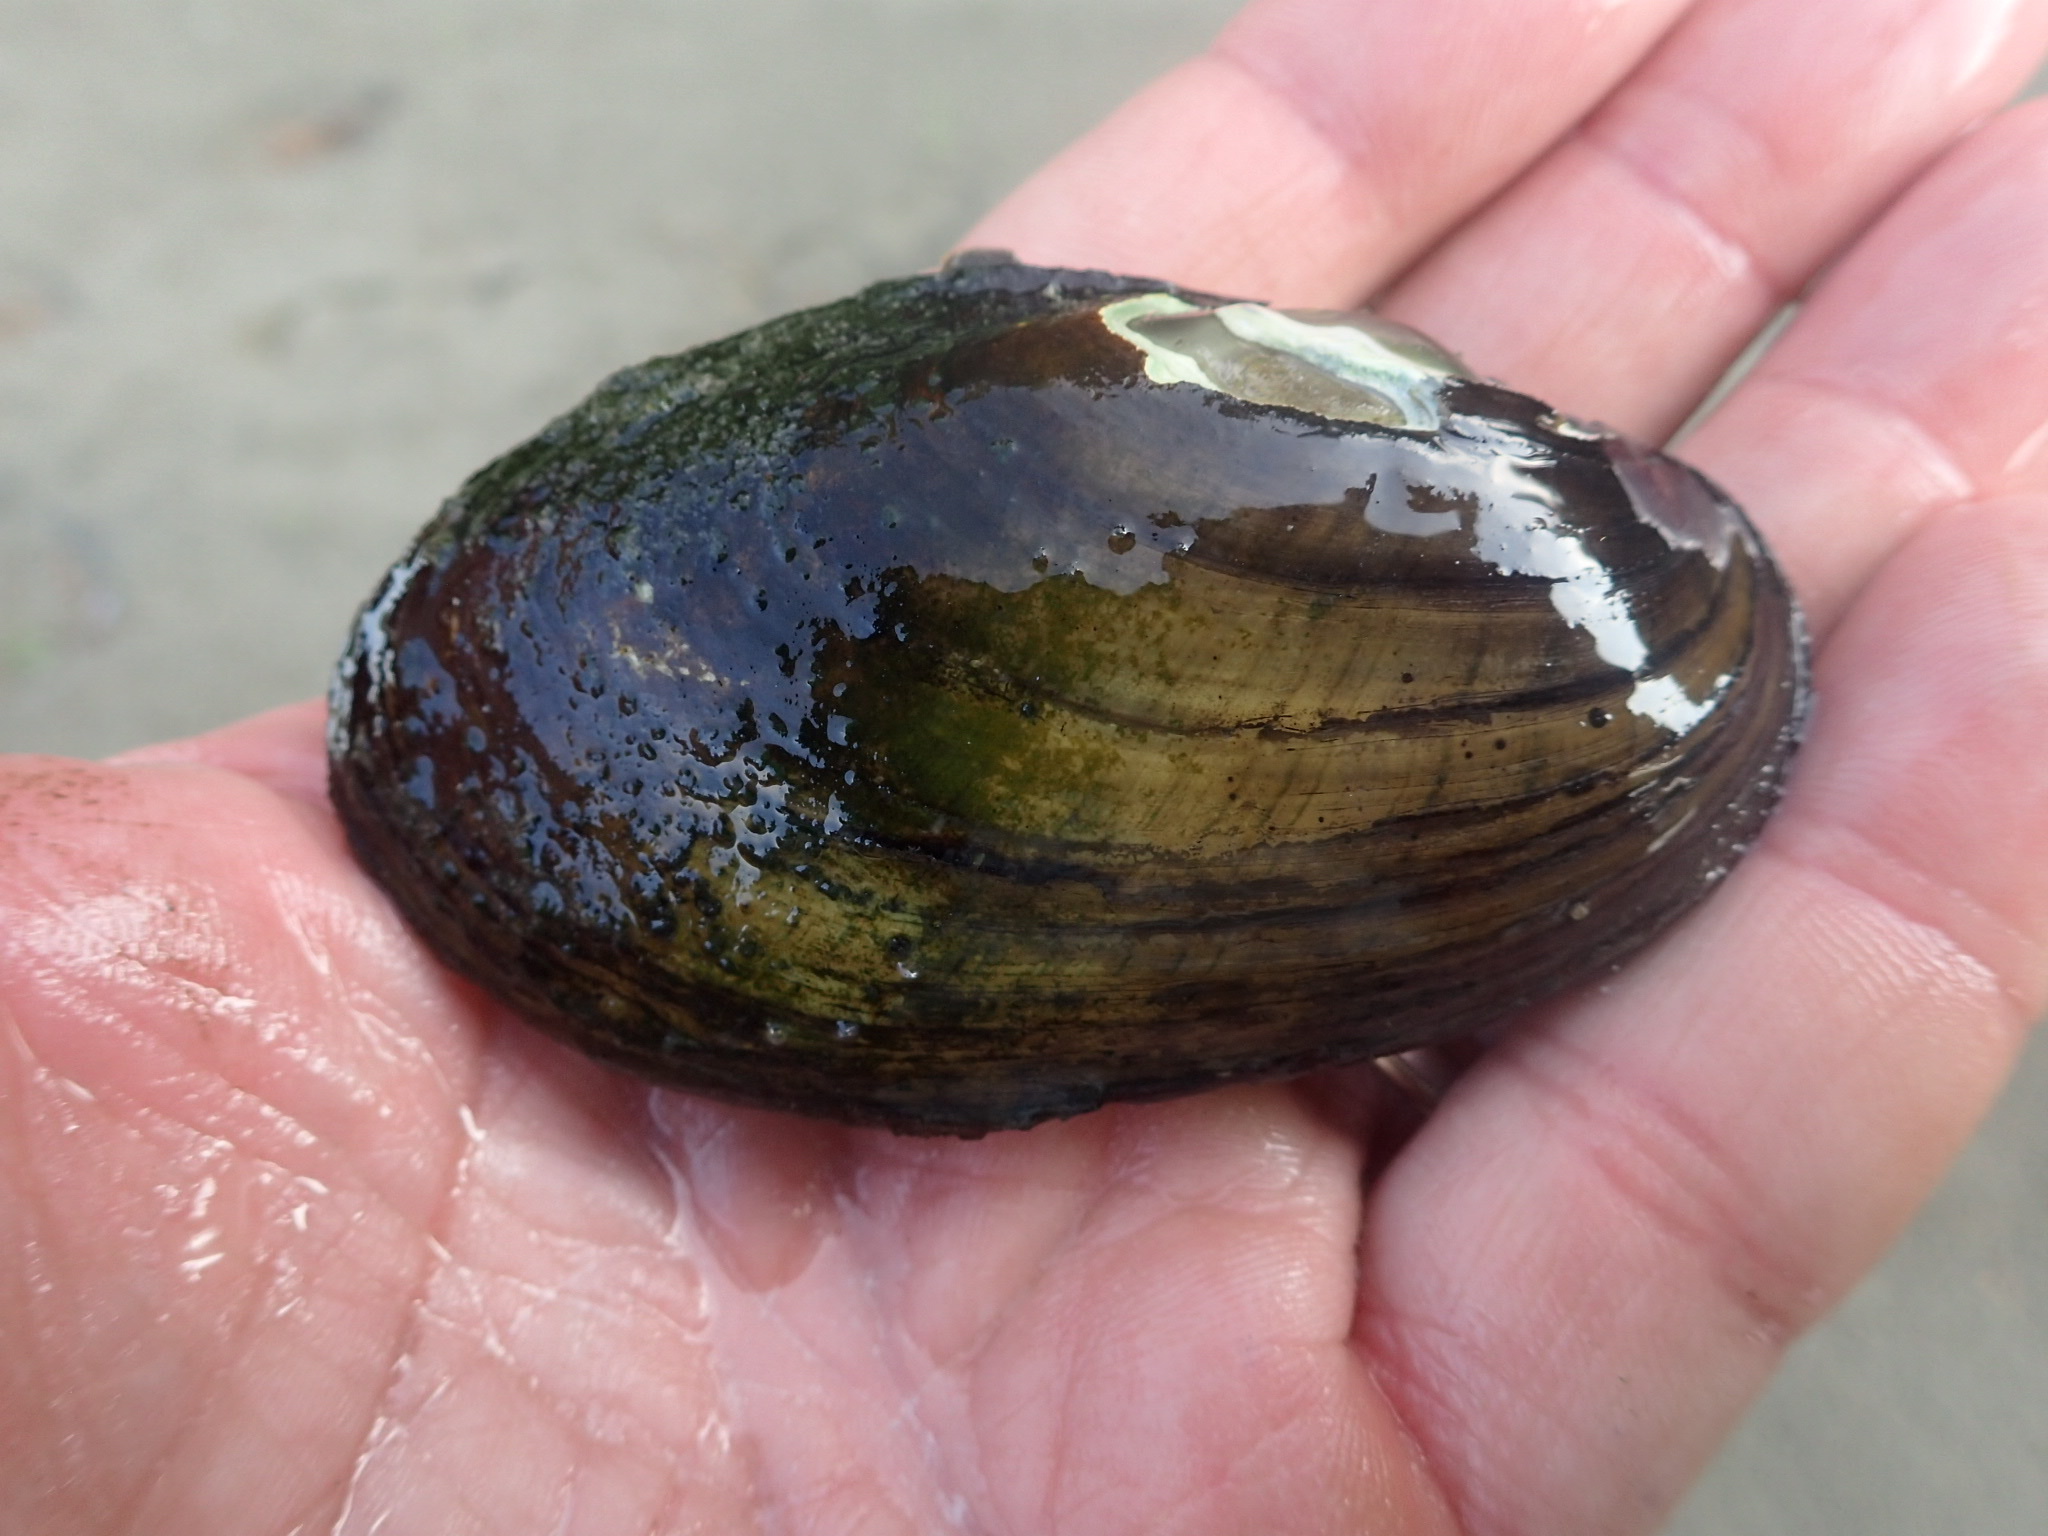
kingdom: Animalia
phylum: Mollusca
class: Bivalvia
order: Unionida
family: Unionidae
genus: Lampsilis
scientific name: Lampsilis siliquoidea
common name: Fatmucket
